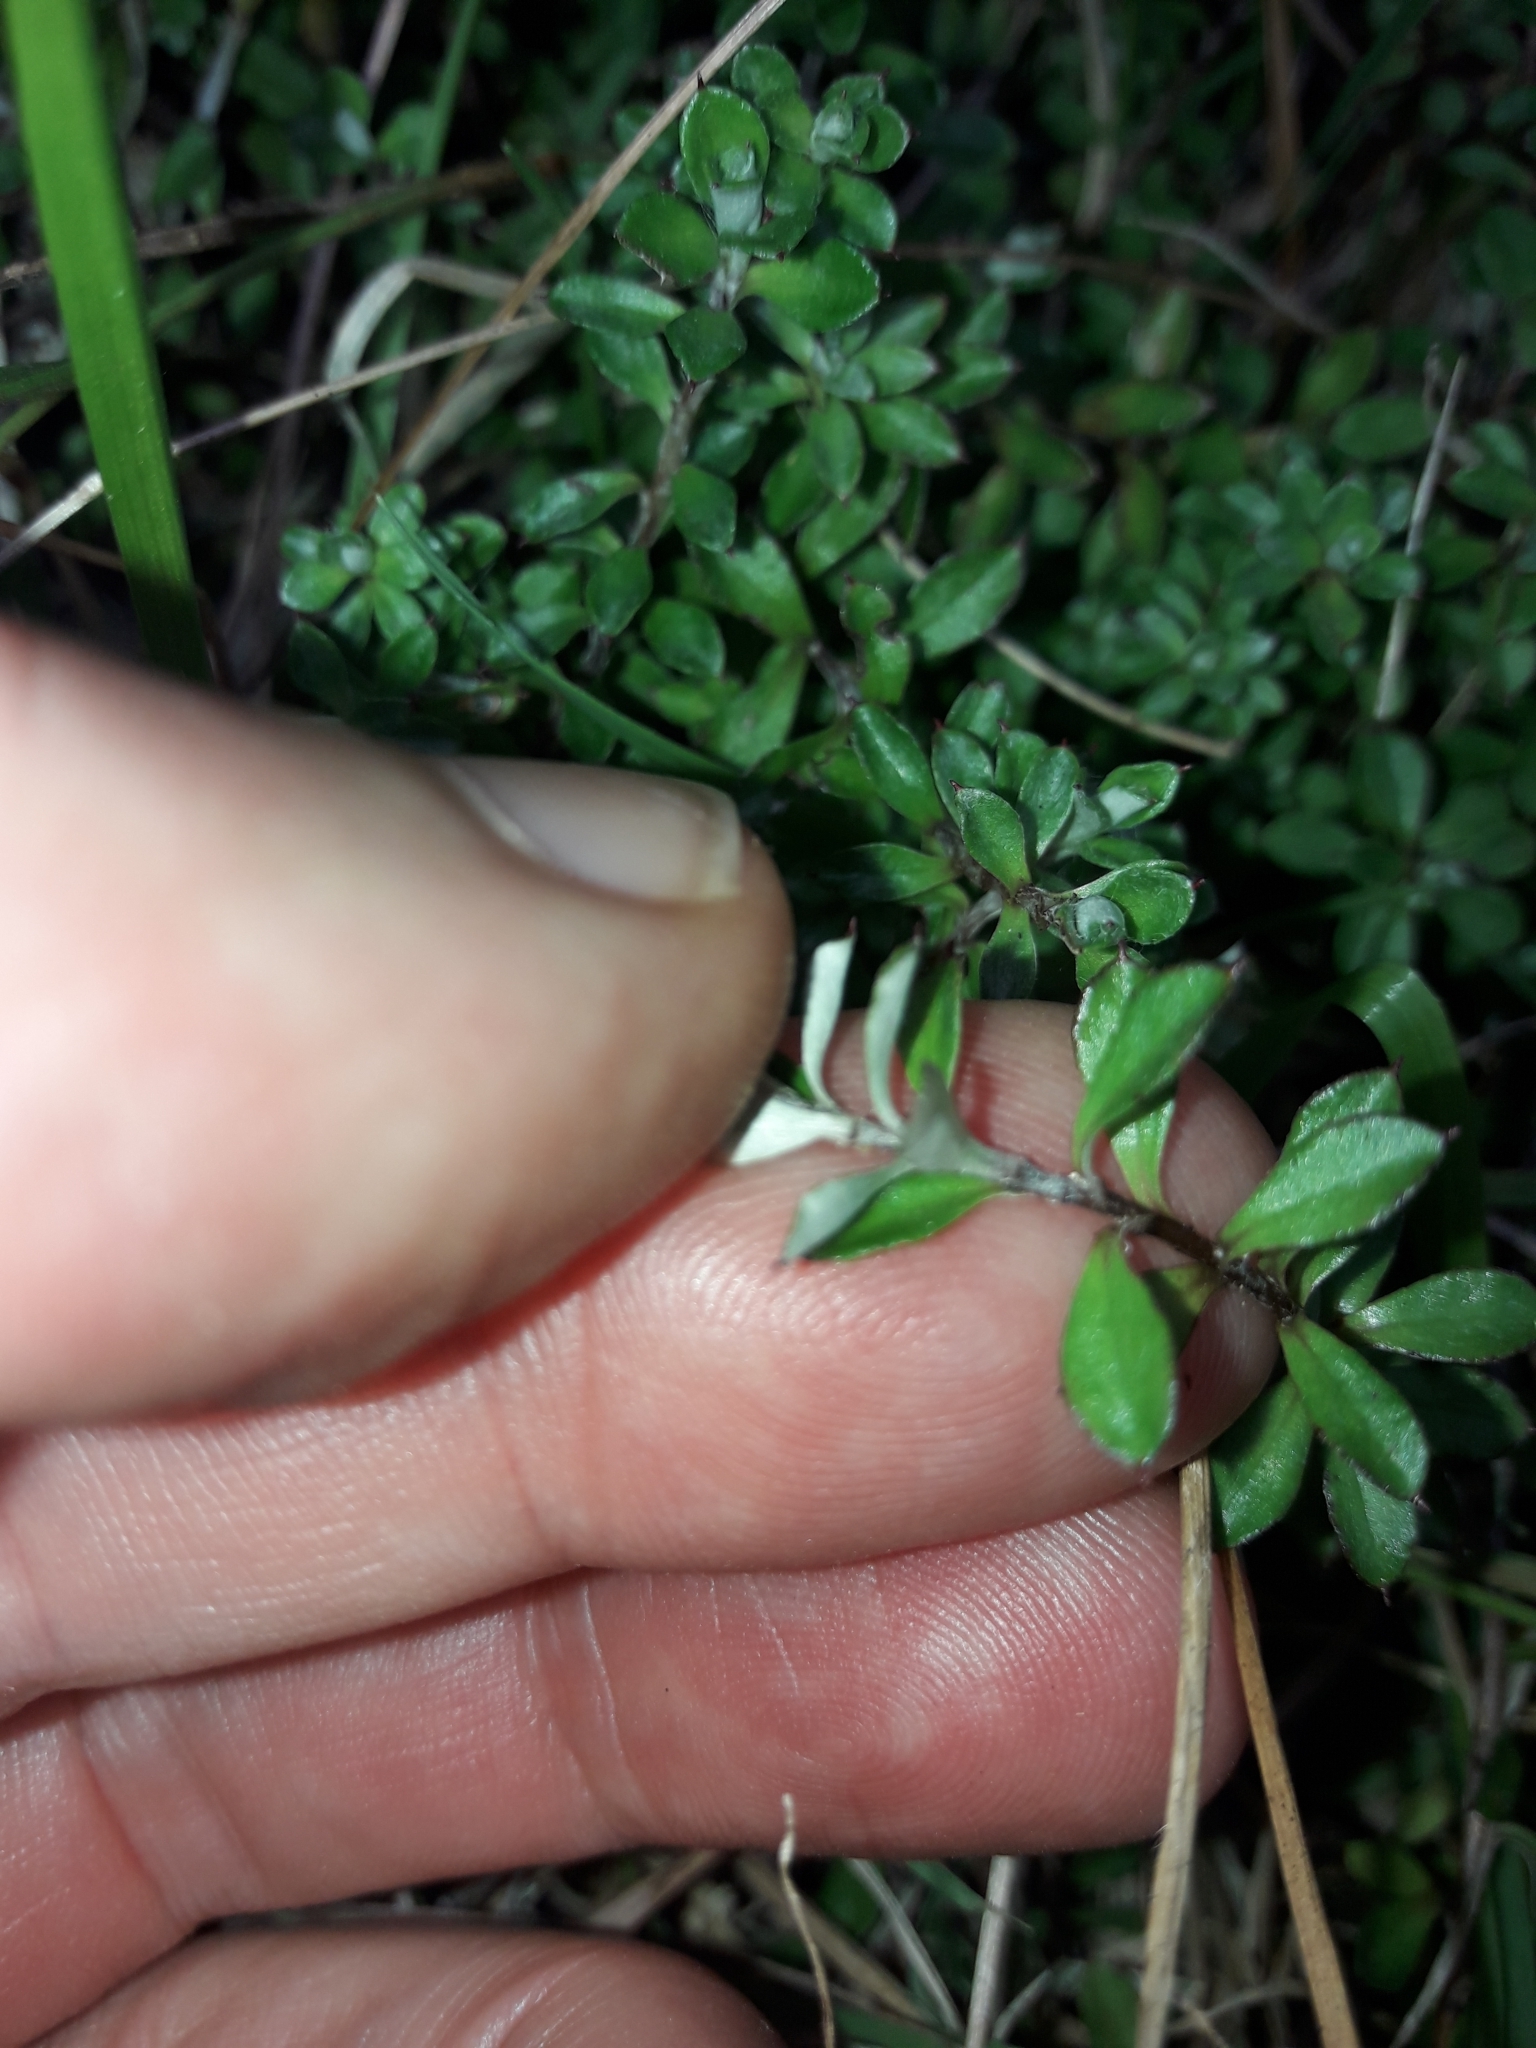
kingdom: Plantae
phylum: Tracheophyta
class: Magnoliopsida
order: Asterales
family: Asteraceae
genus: Anaphalioides
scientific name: Anaphalioides bellidioides
